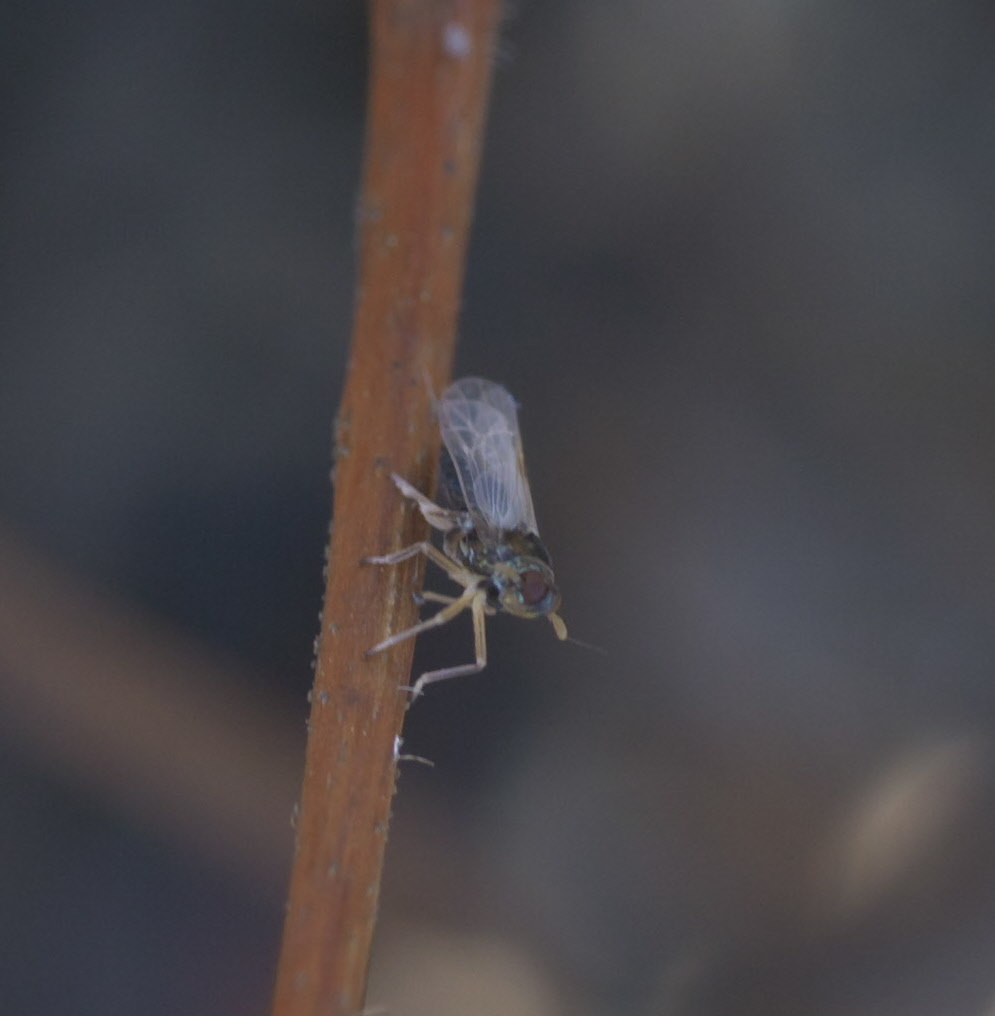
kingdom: Animalia
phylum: Arthropoda
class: Insecta
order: Hemiptera
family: Delphacidae
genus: Pissonotus
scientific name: Pissonotus piceus
